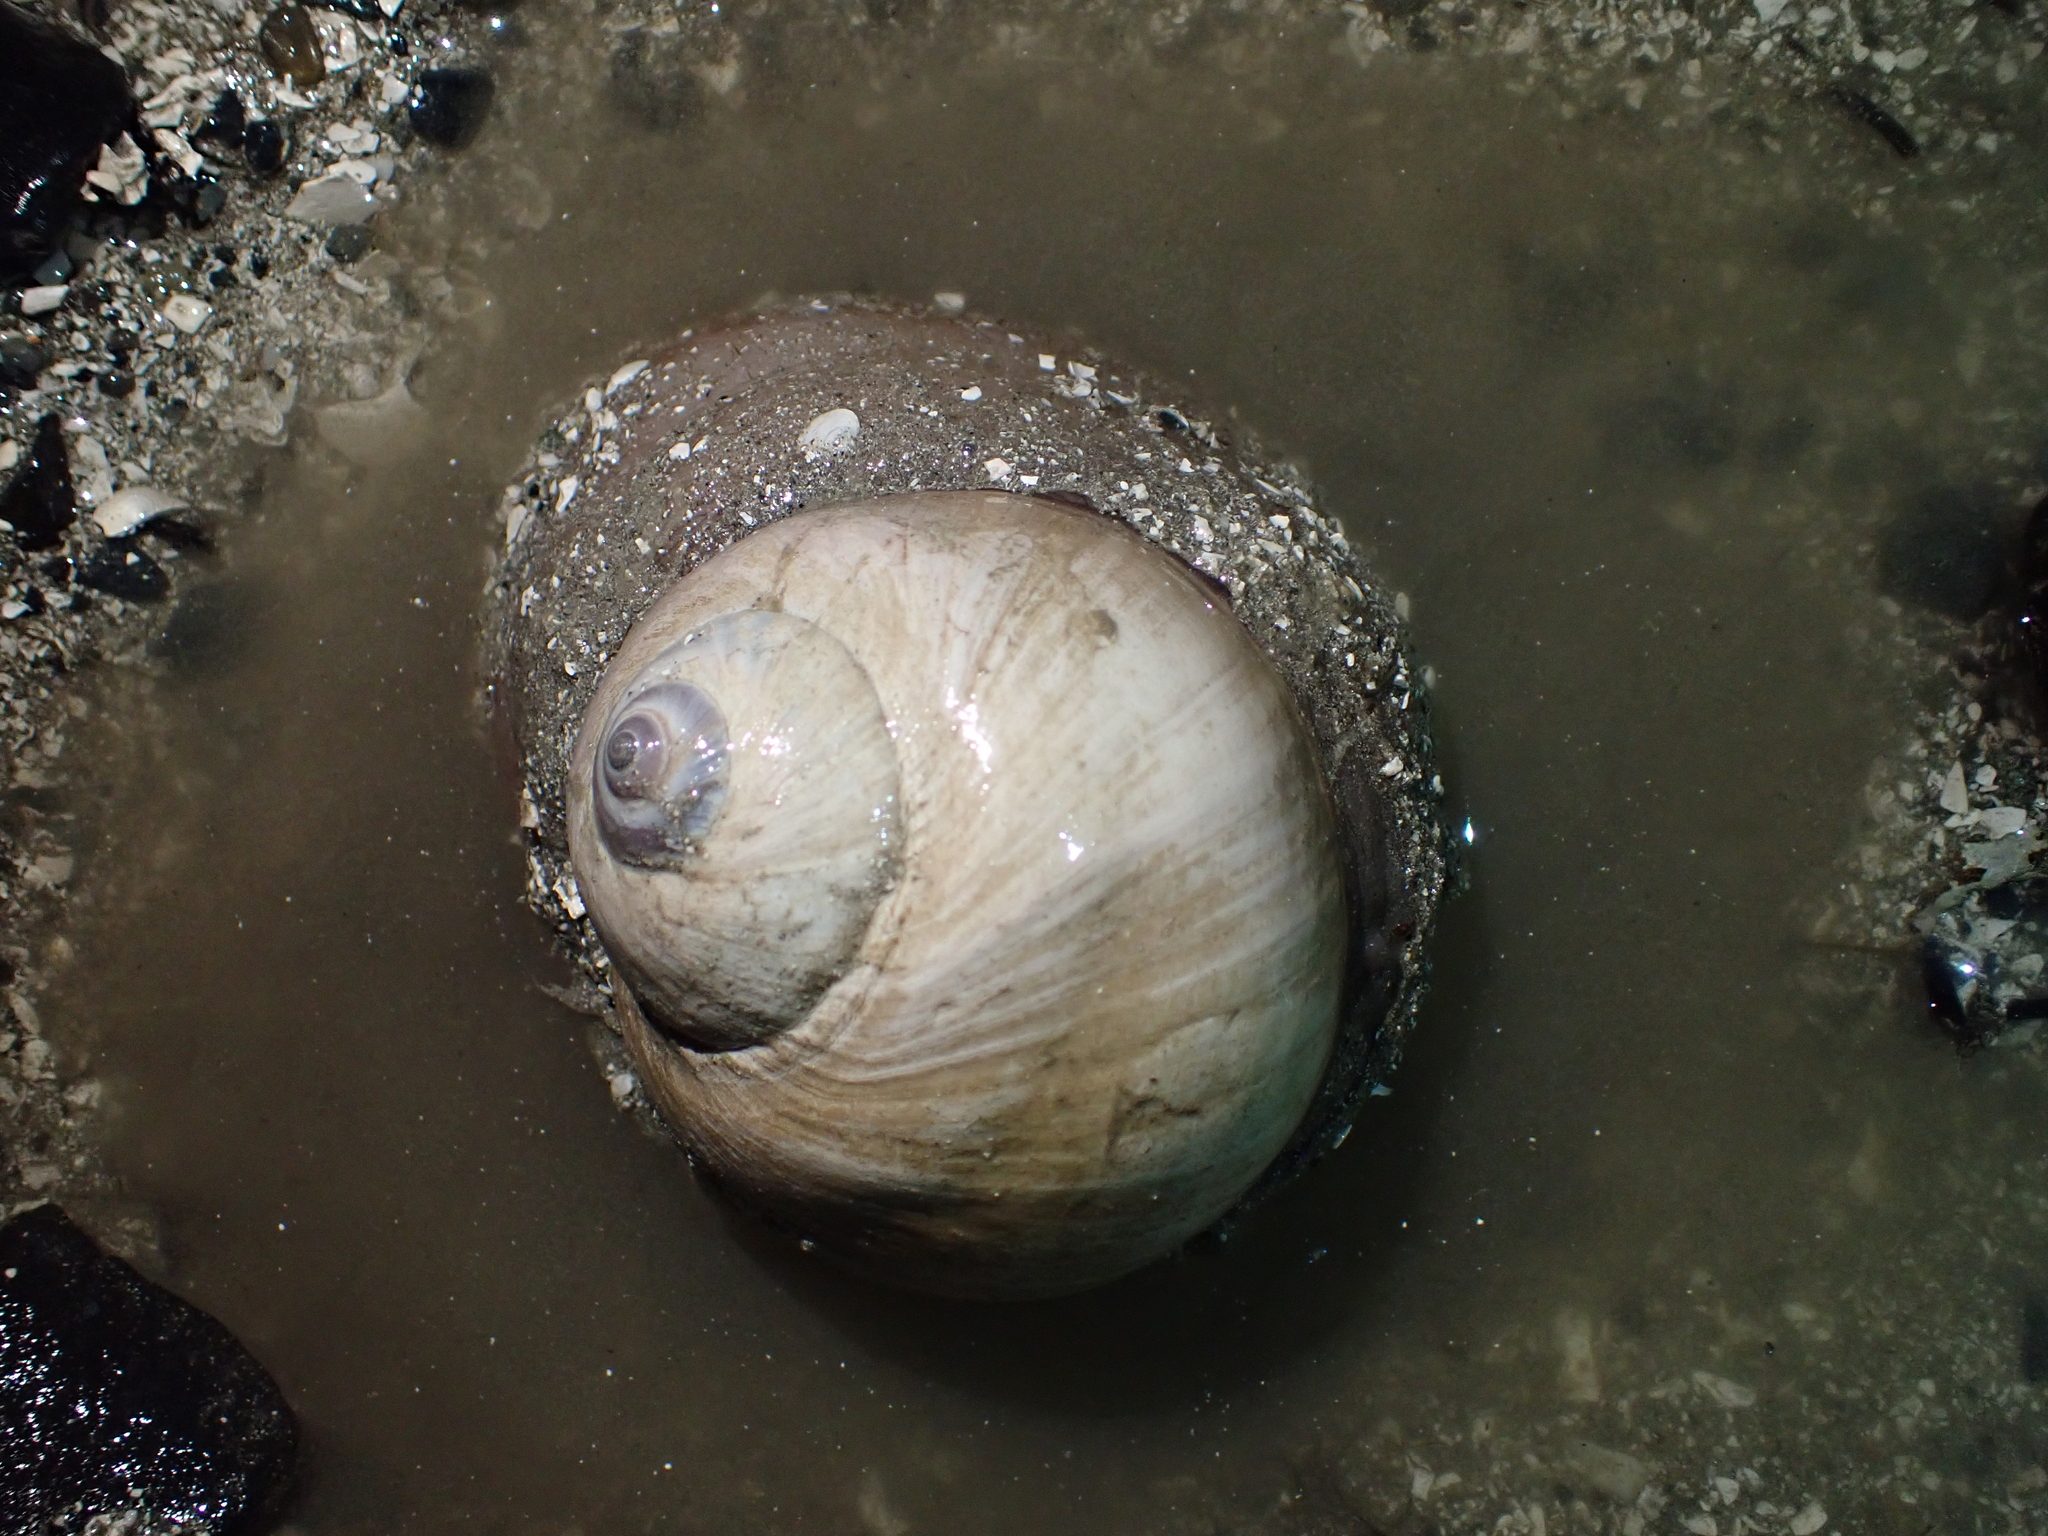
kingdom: Animalia
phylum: Mollusca
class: Gastropoda
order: Littorinimorpha
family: Naticidae
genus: Neverita
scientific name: Neverita lewisii
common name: Lewis' moonsnail
